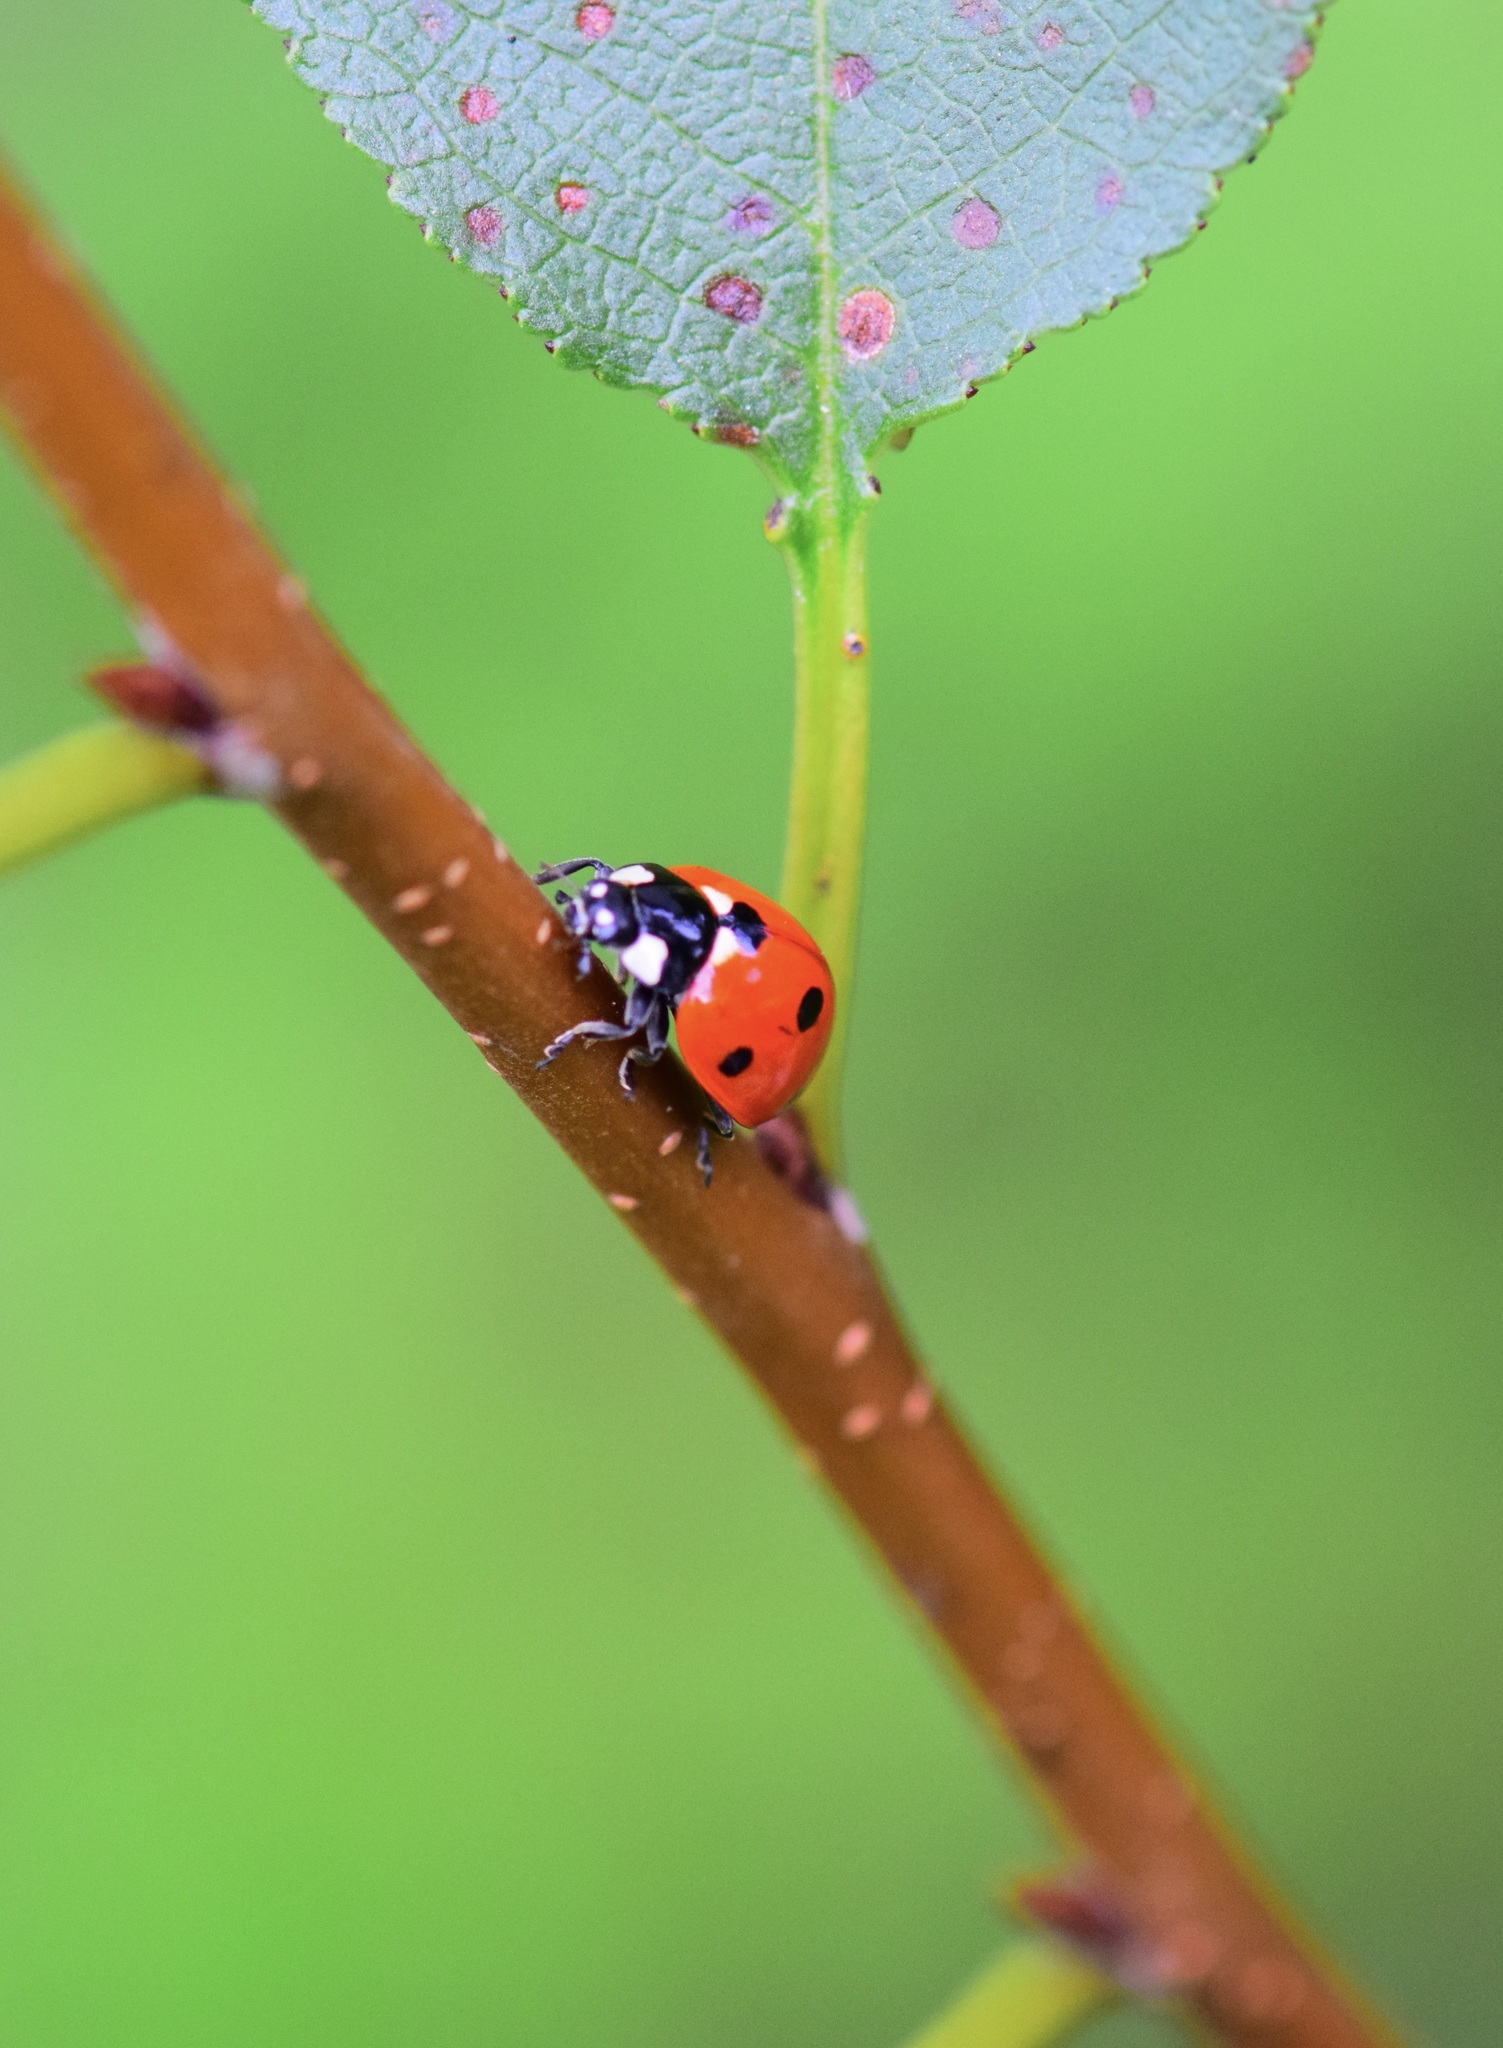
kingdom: Animalia
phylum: Arthropoda
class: Insecta
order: Coleoptera
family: Coccinellidae
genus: Coccinella
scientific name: Coccinella septempunctata
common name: Sevenspotted lady beetle
